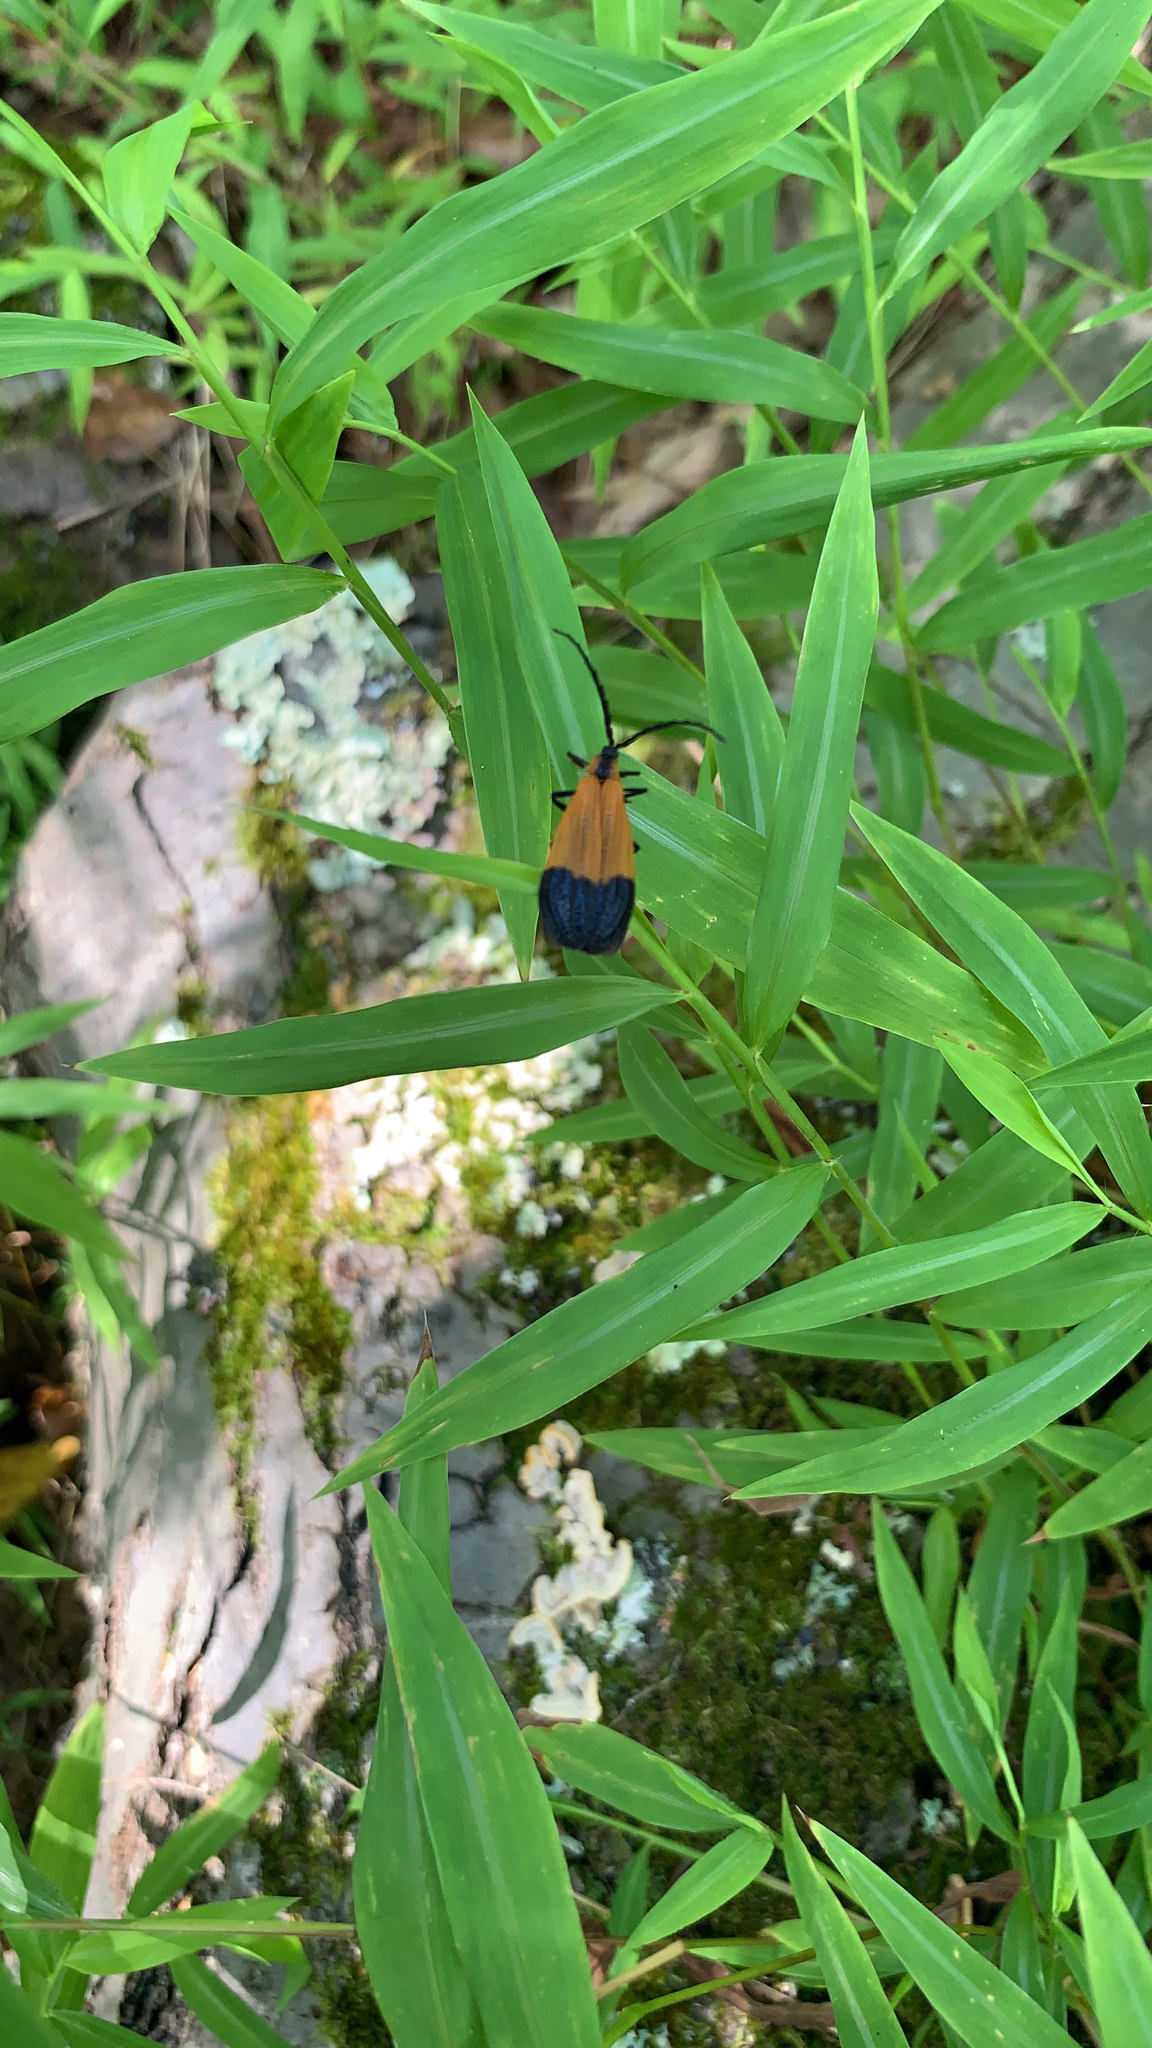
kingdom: Animalia
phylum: Arthropoda
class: Insecta
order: Coleoptera
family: Lycidae
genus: Calopteron
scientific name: Calopteron terminale
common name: End band net-winged beetle
